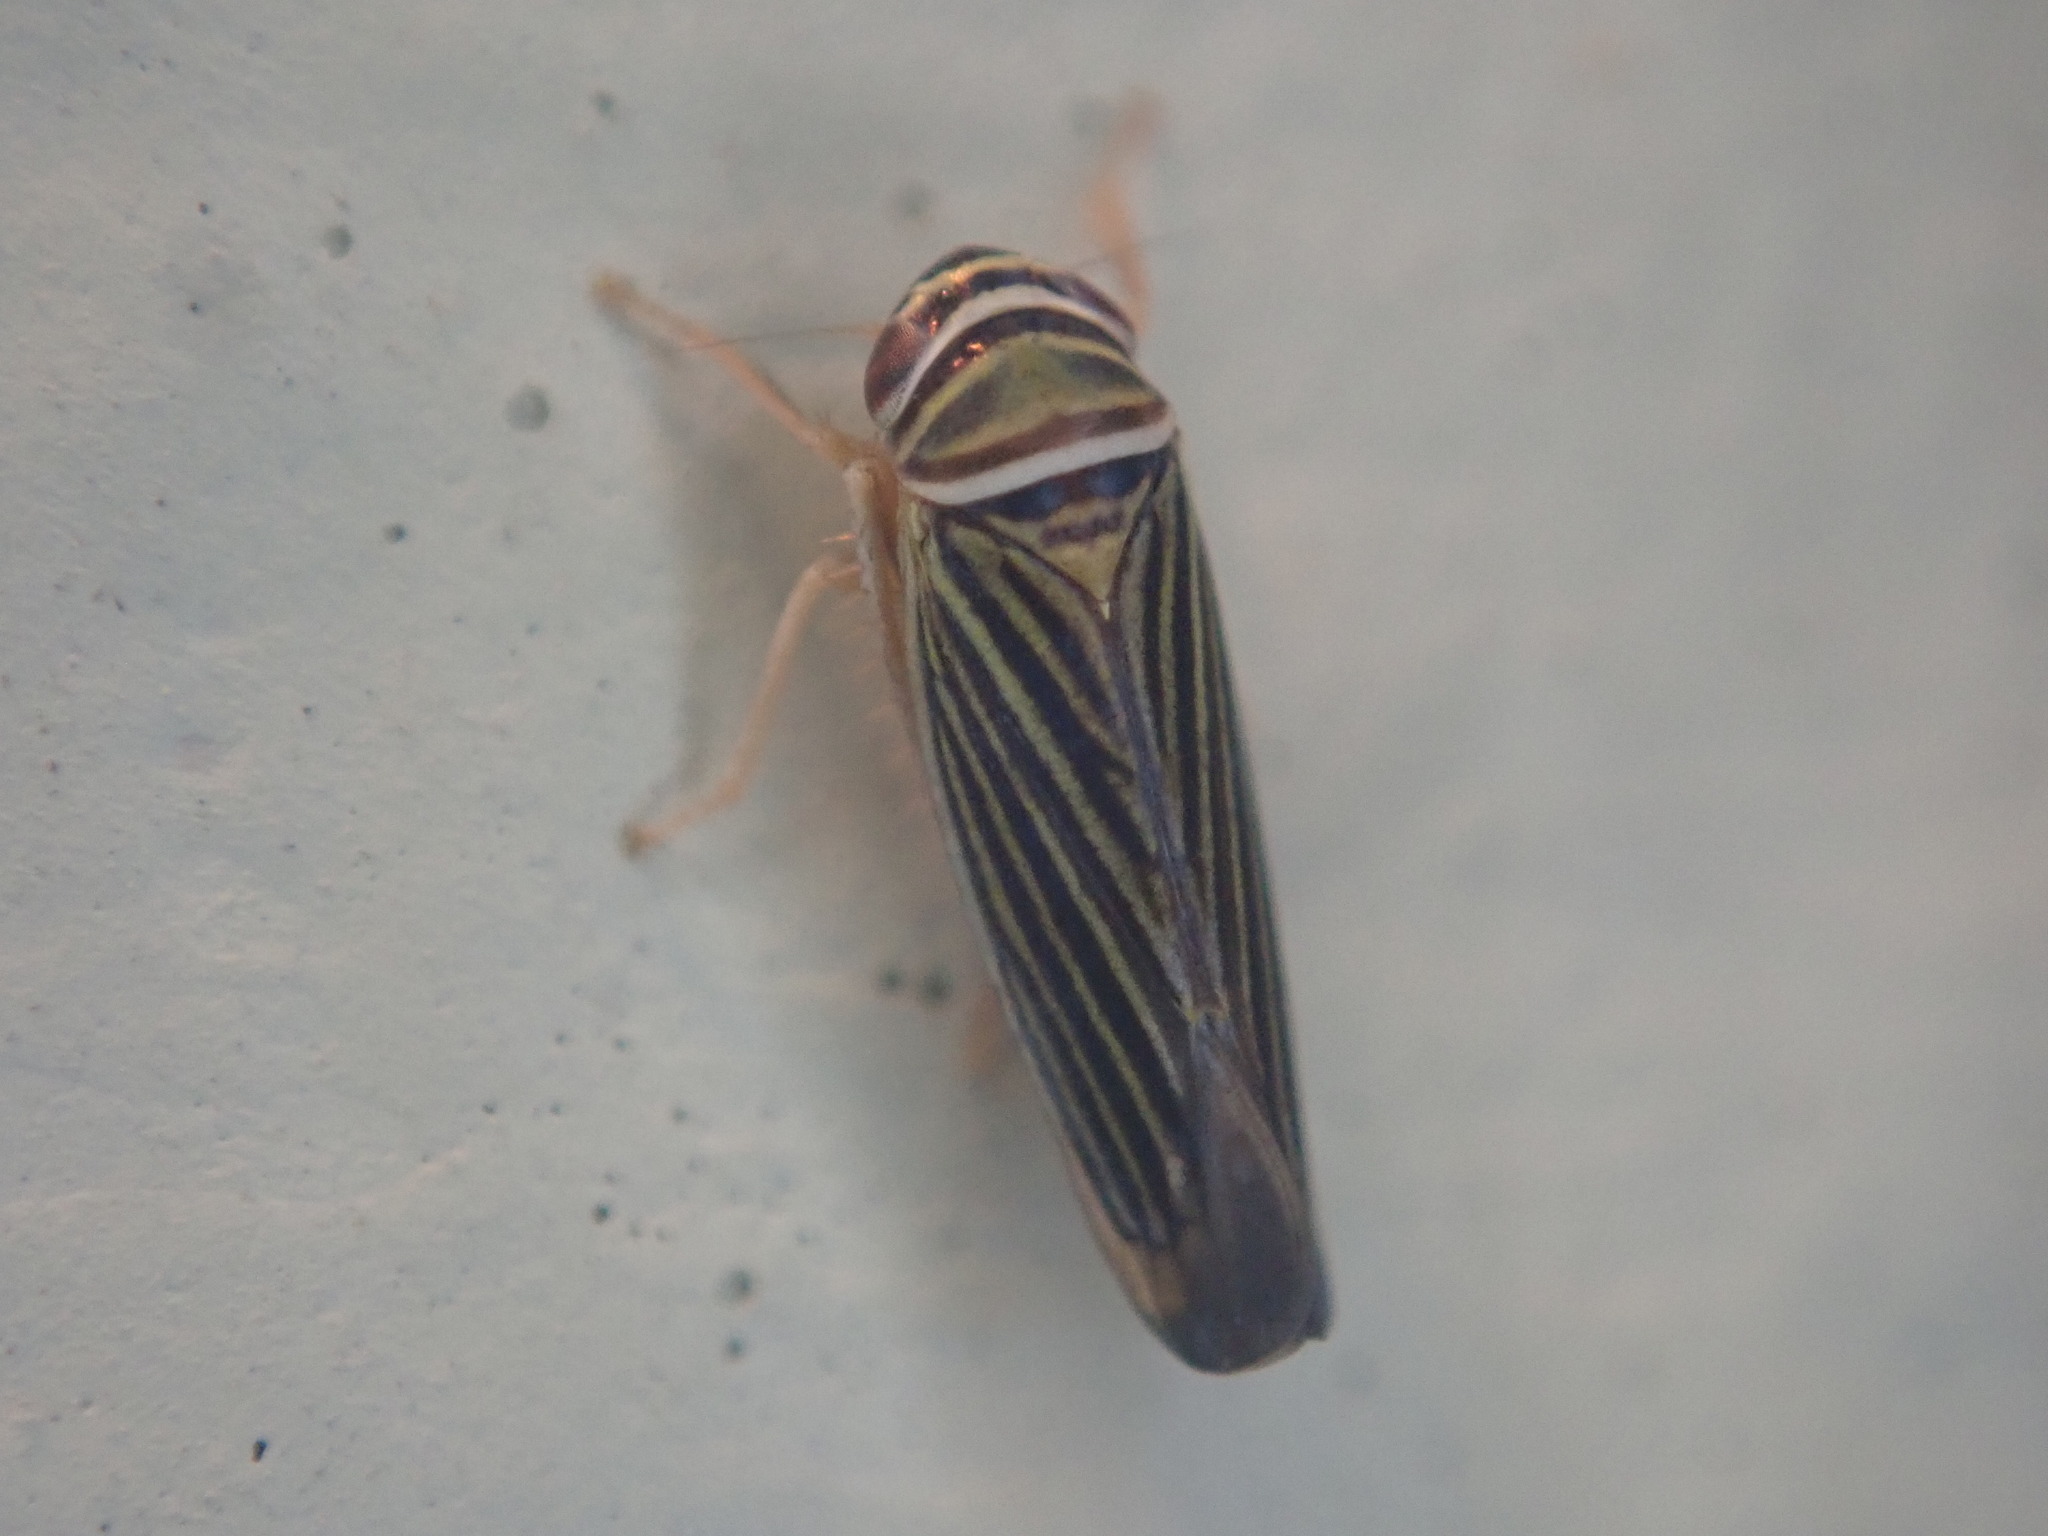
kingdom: Animalia
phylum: Arthropoda
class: Insecta
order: Hemiptera
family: Cicadellidae
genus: Tylozygus
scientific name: Tylozygus bifidus
